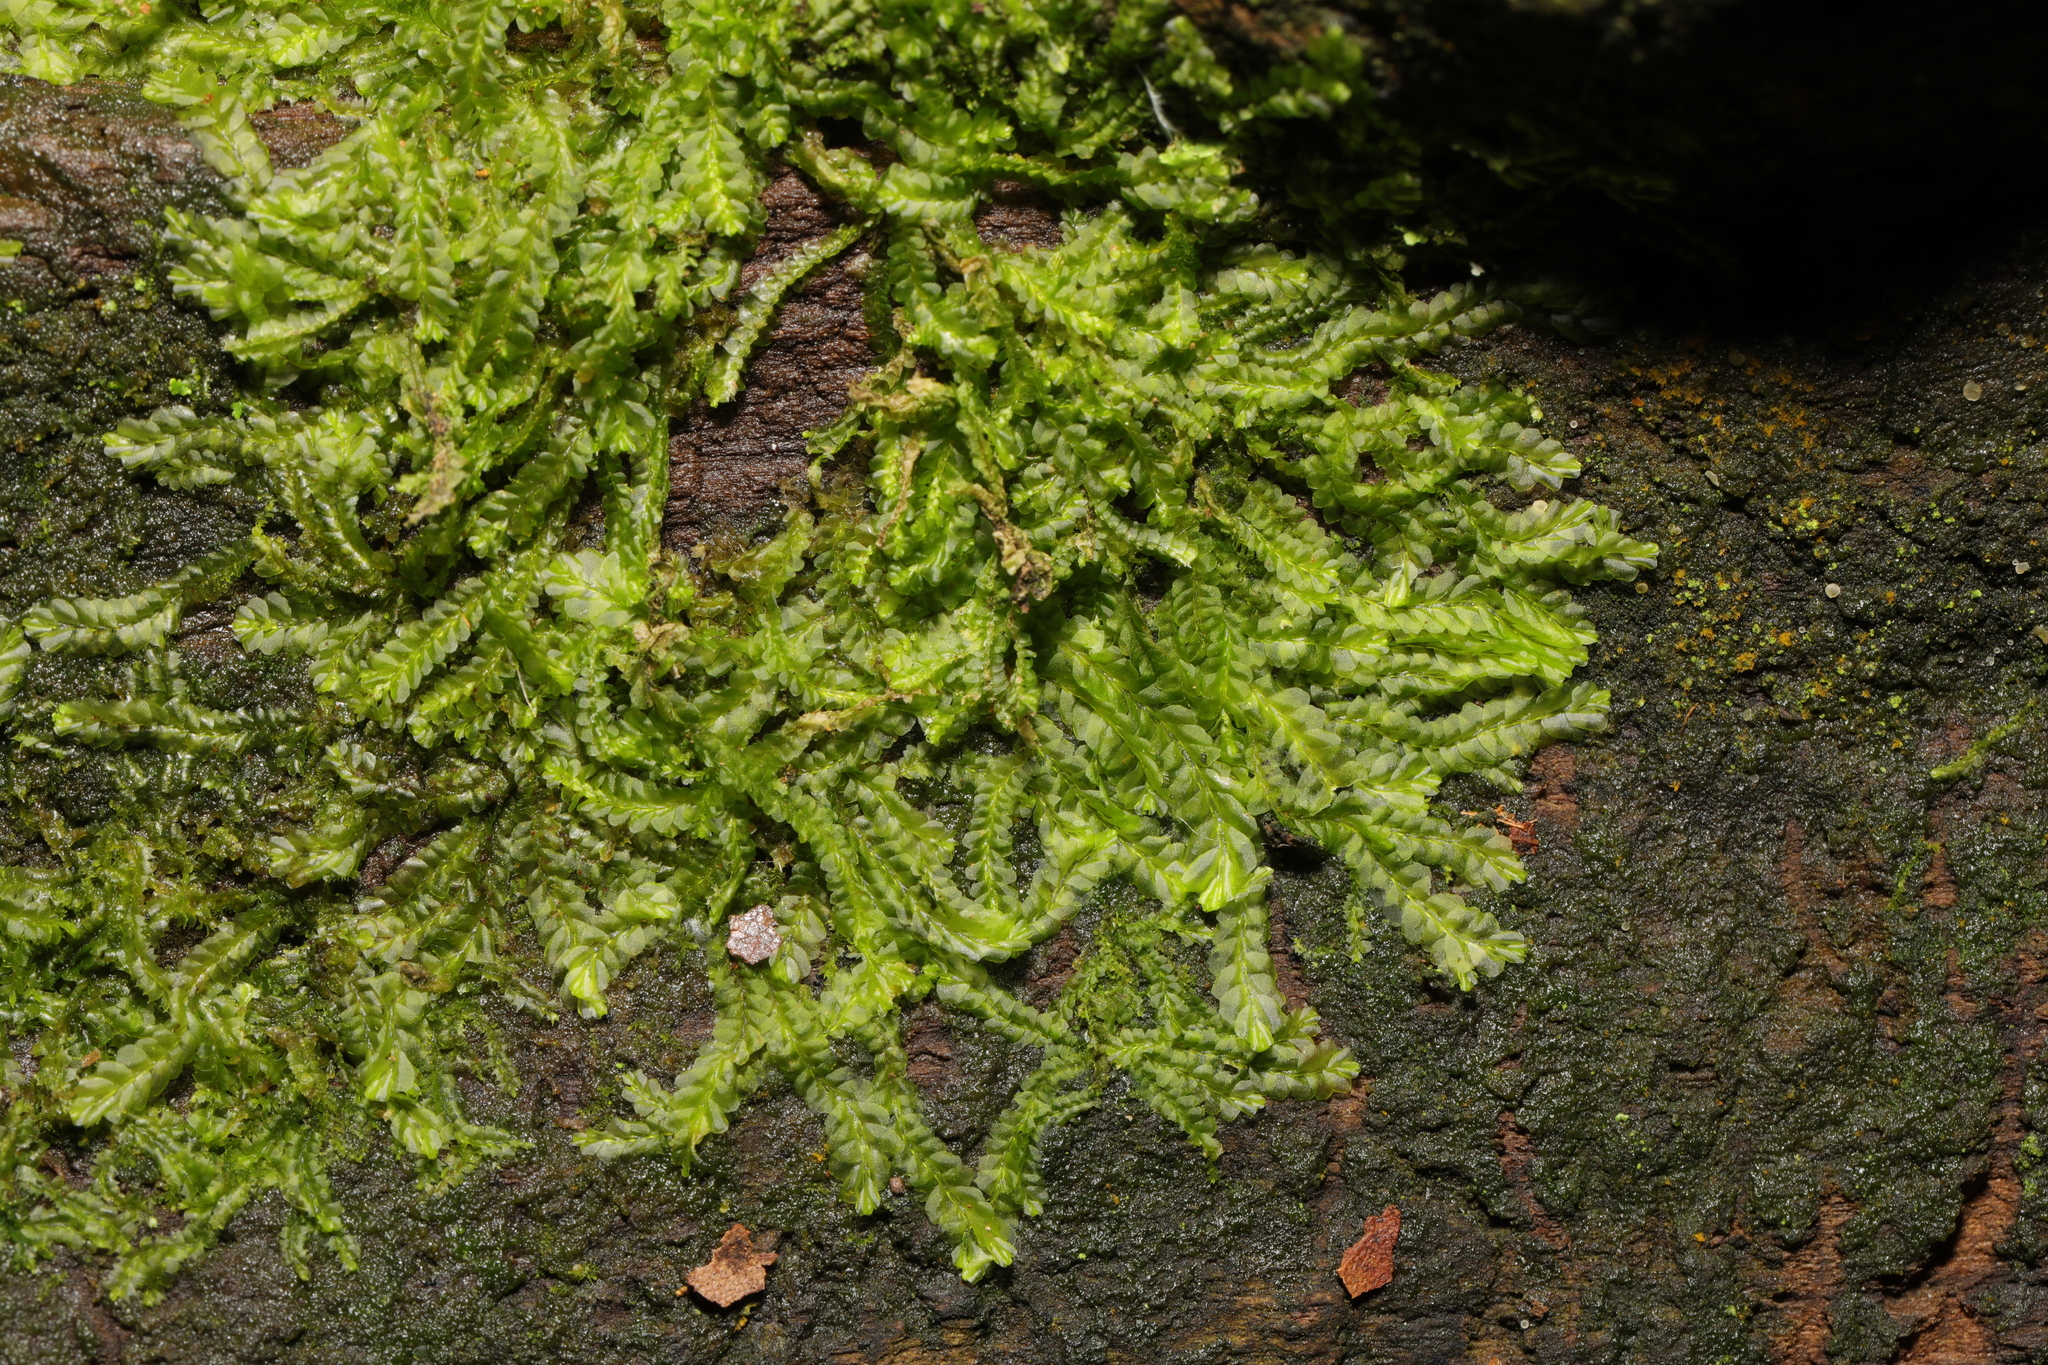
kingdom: Plantae
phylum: Marchantiophyta
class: Jungermanniopsida
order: Jungermanniales
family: Lophocoleaceae
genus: Lophocolea
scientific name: Lophocolea semiteres
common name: Southern crestwort
